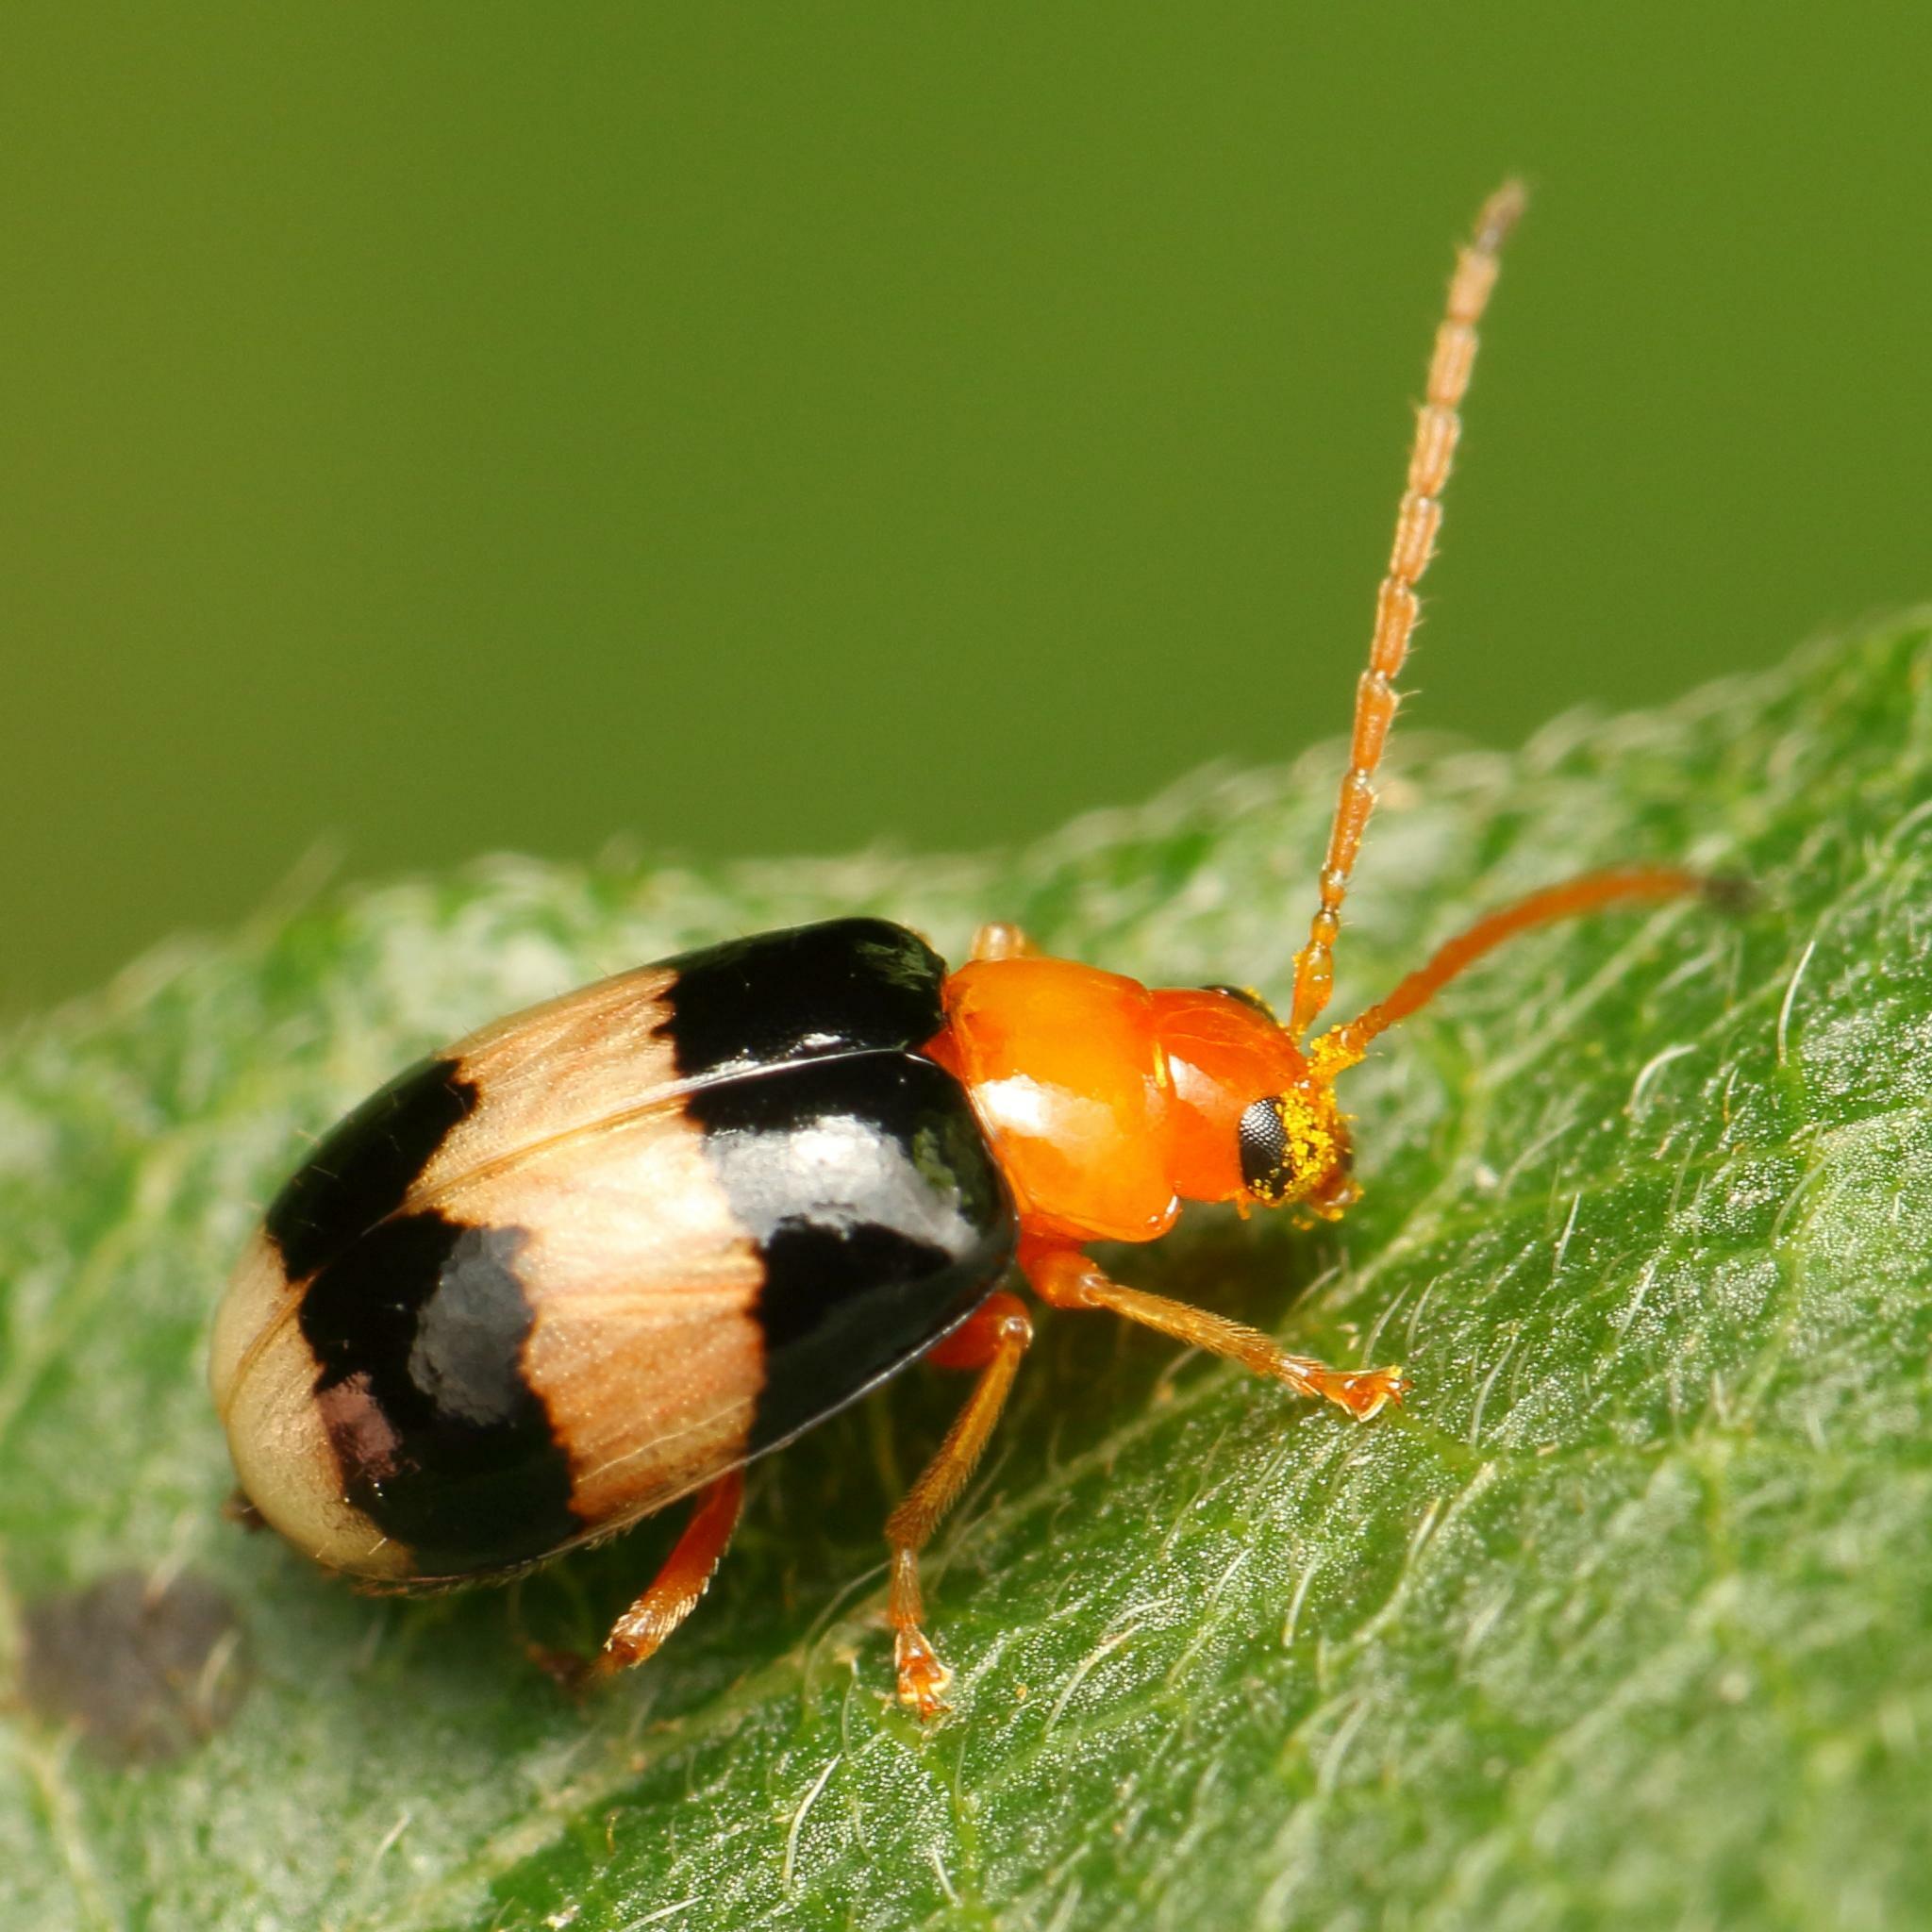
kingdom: Animalia
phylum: Arthropoda
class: Insecta
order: Coleoptera
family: Chrysomelidae
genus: Monolepta
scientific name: Monolepta
